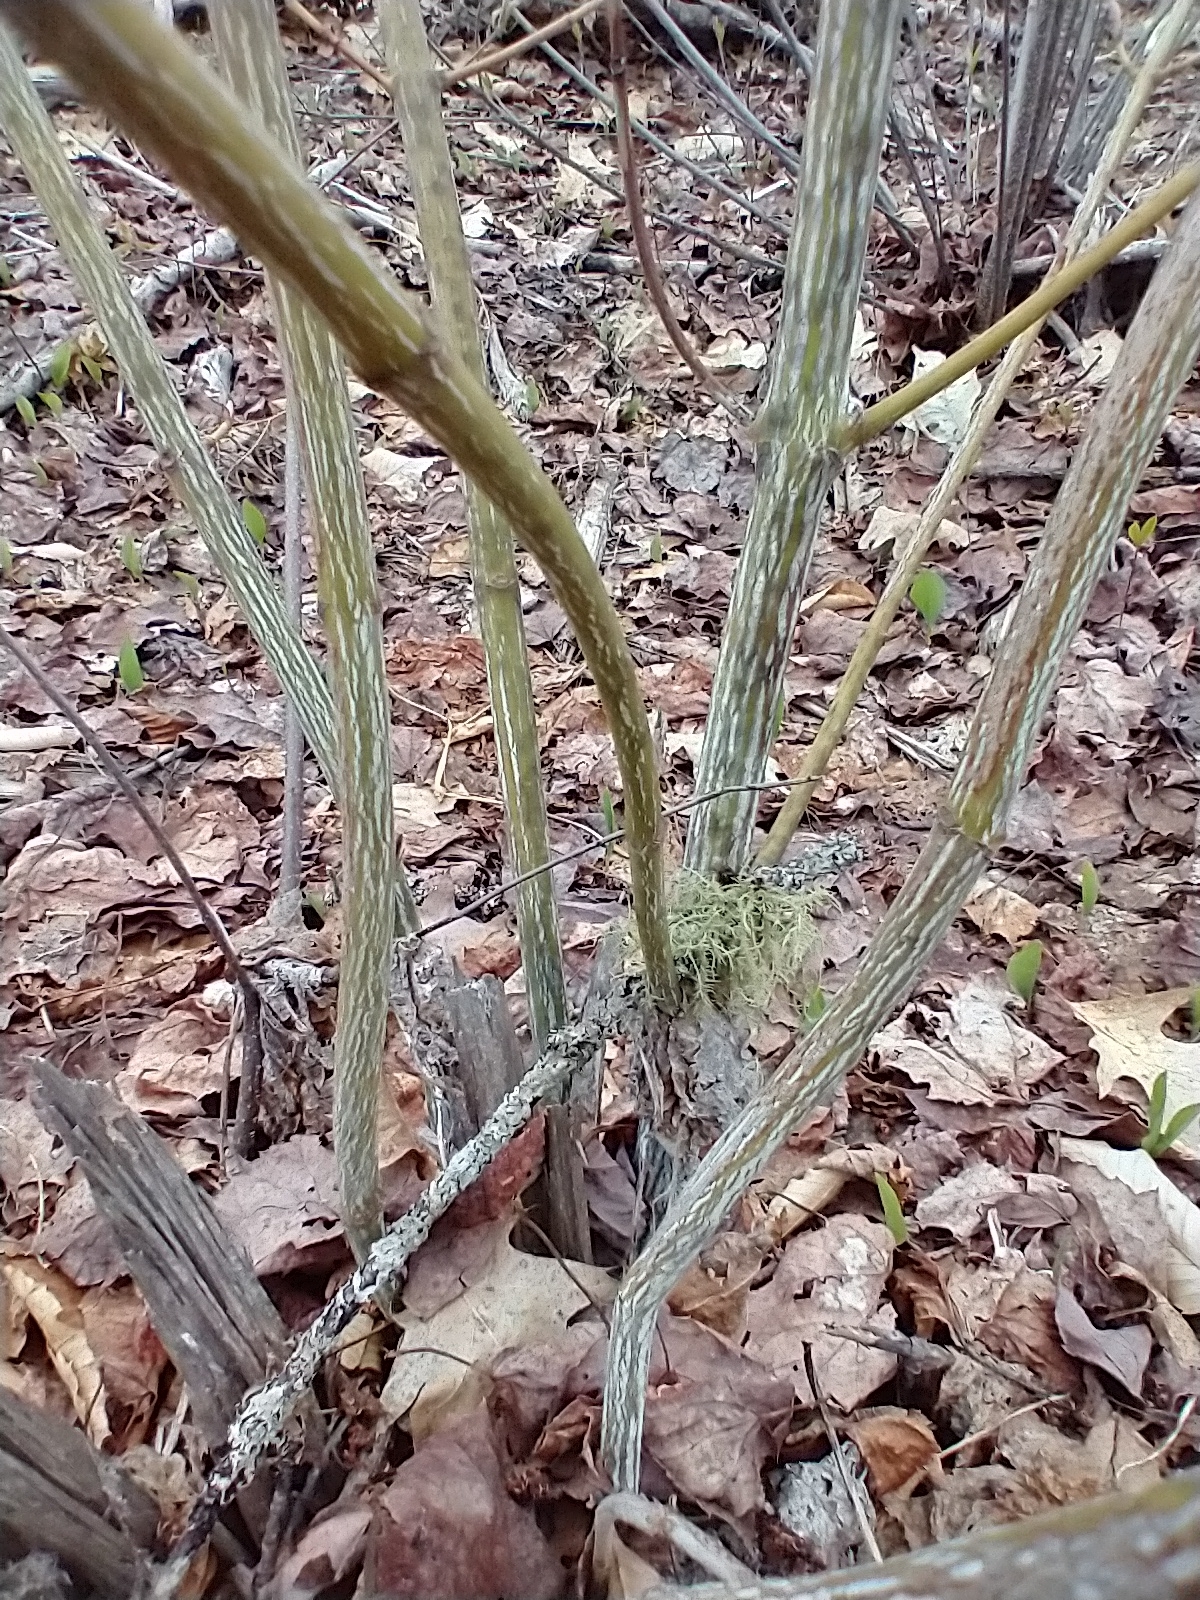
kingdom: Plantae
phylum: Tracheophyta
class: Magnoliopsida
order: Sapindales
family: Sapindaceae
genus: Acer
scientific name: Acer pensylvanicum
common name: Moosewood
